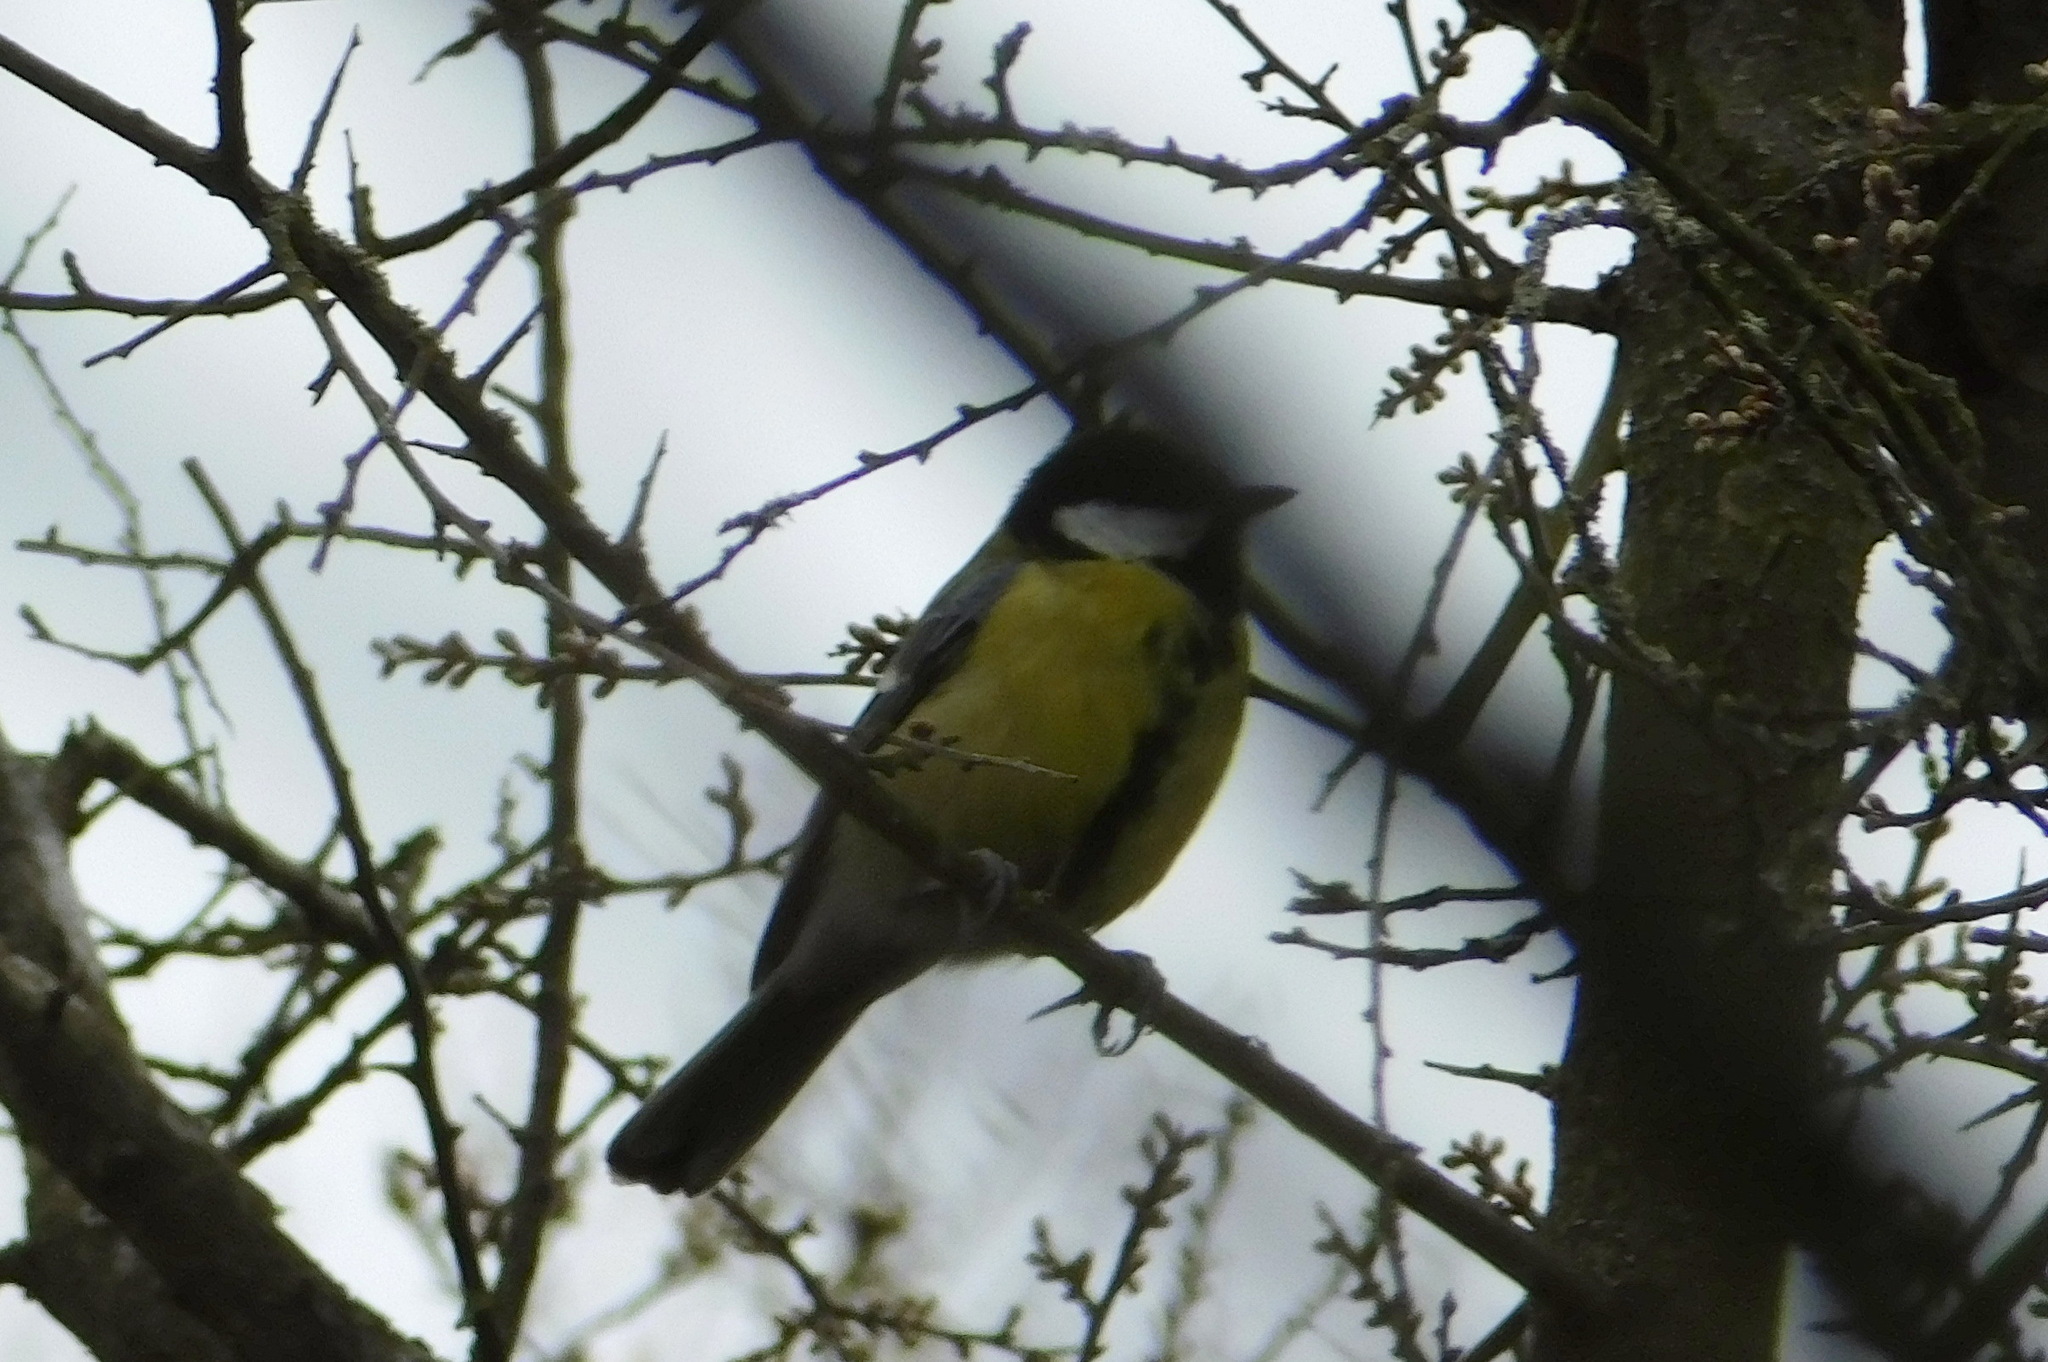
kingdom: Animalia
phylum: Chordata
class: Aves
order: Passeriformes
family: Paridae
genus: Parus
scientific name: Parus major
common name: Great tit
